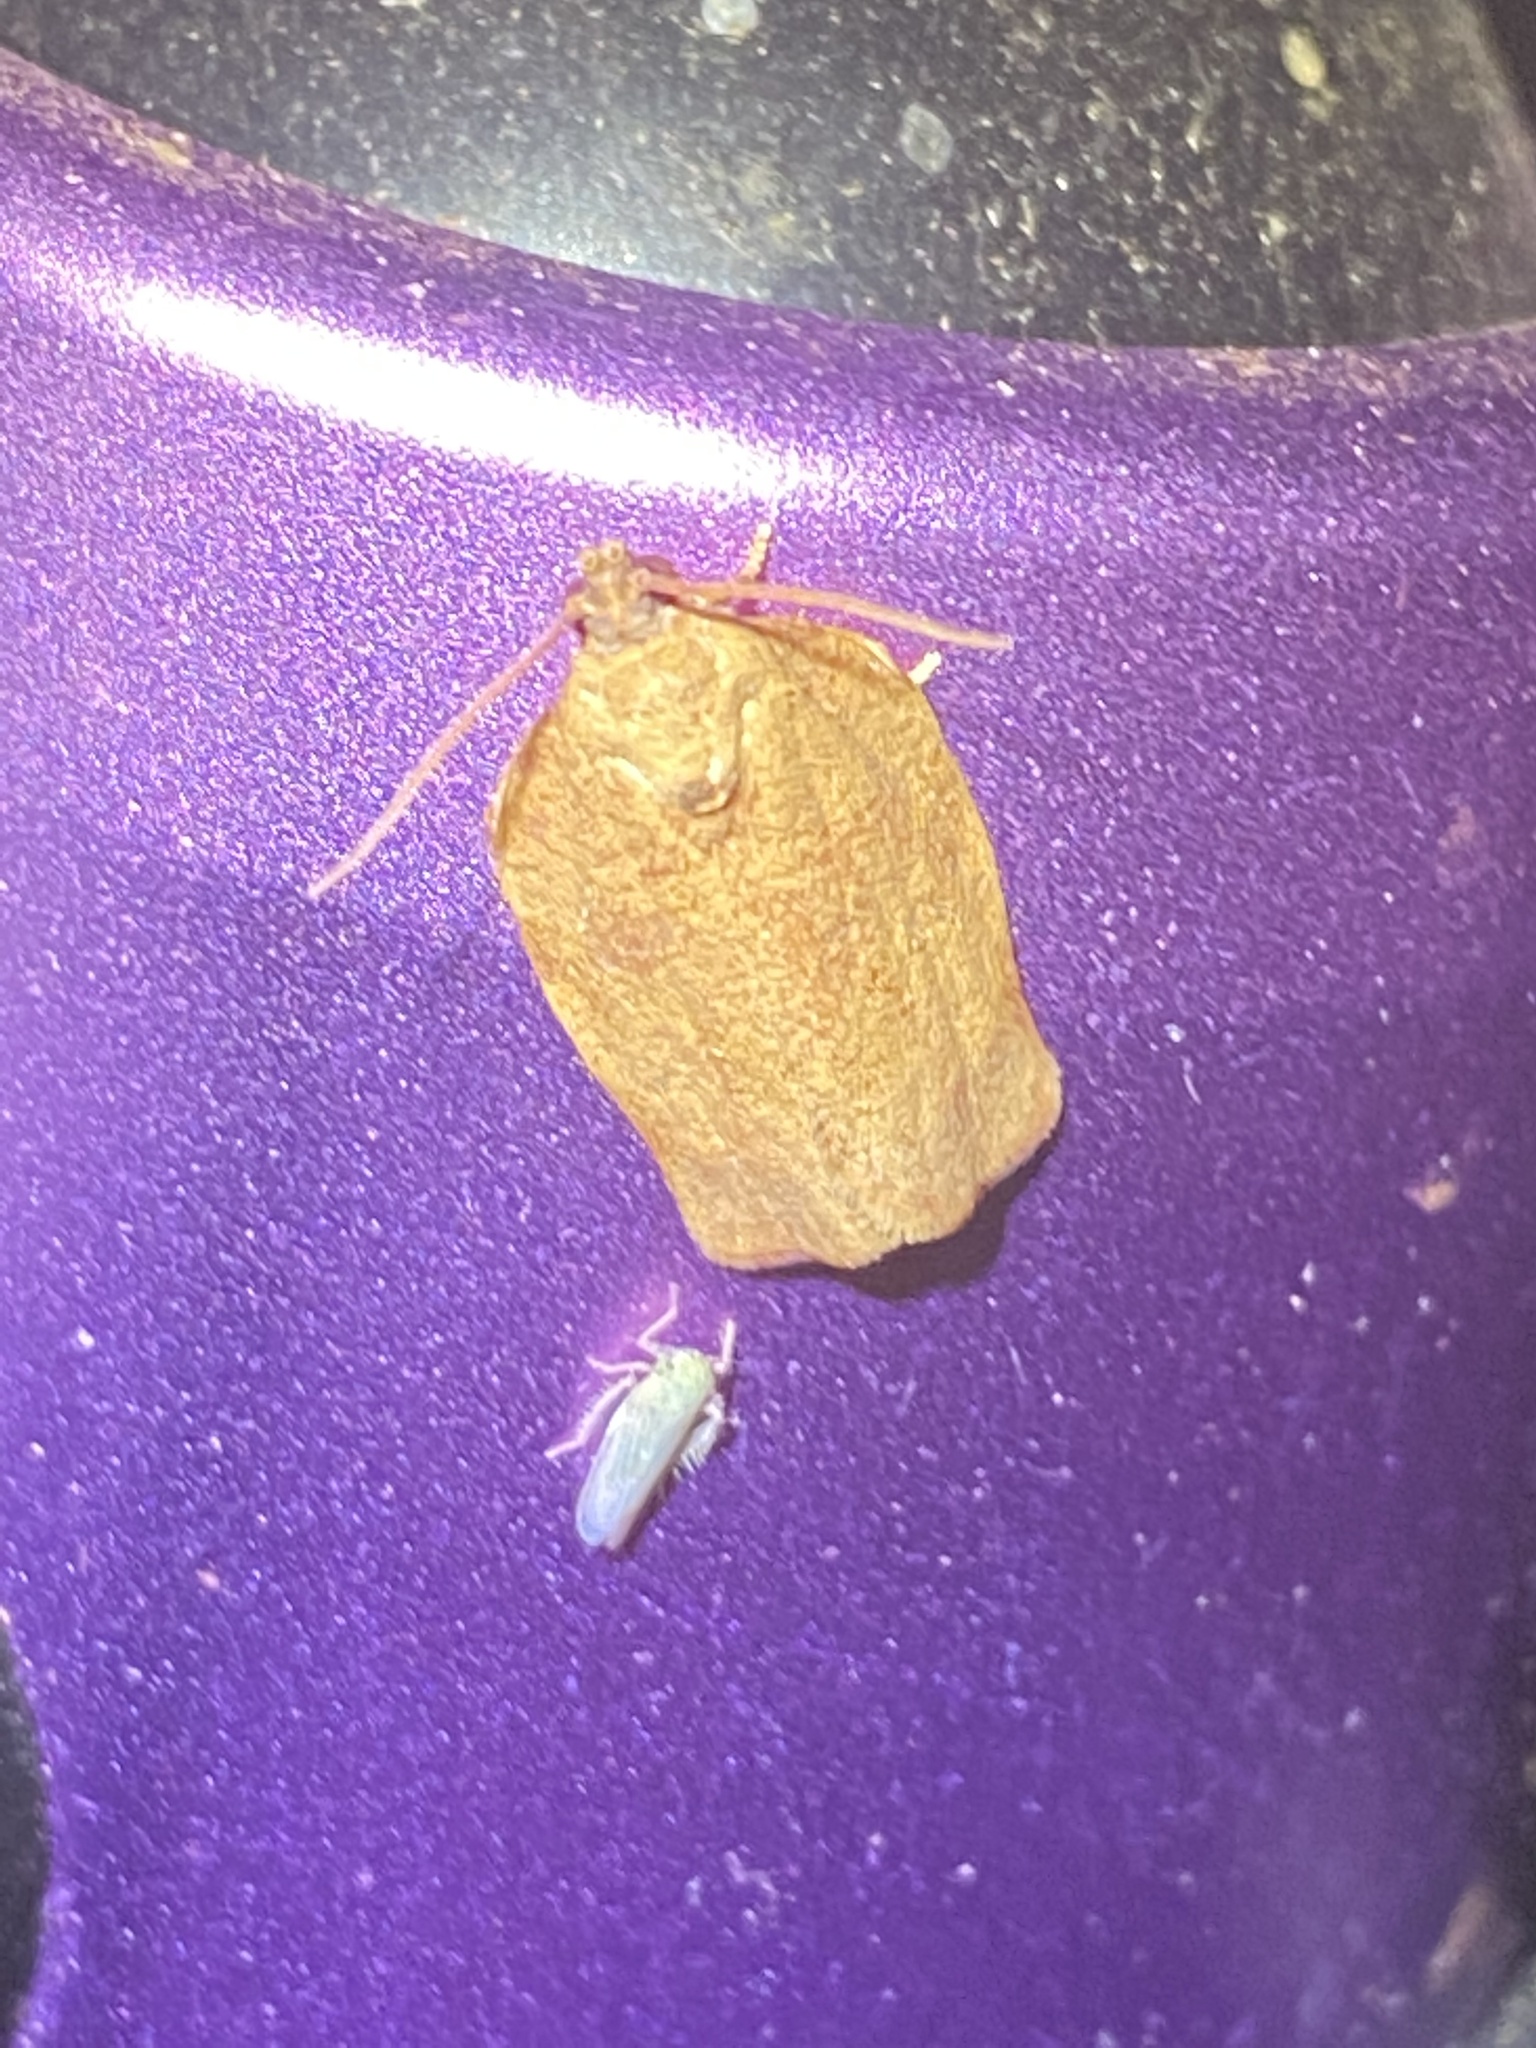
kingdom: Animalia
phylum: Arthropoda
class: Insecta
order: Lepidoptera
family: Tortricidae
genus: Choristoneura
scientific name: Choristoneura rosaceana
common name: Oblique-banded leafroller moth
